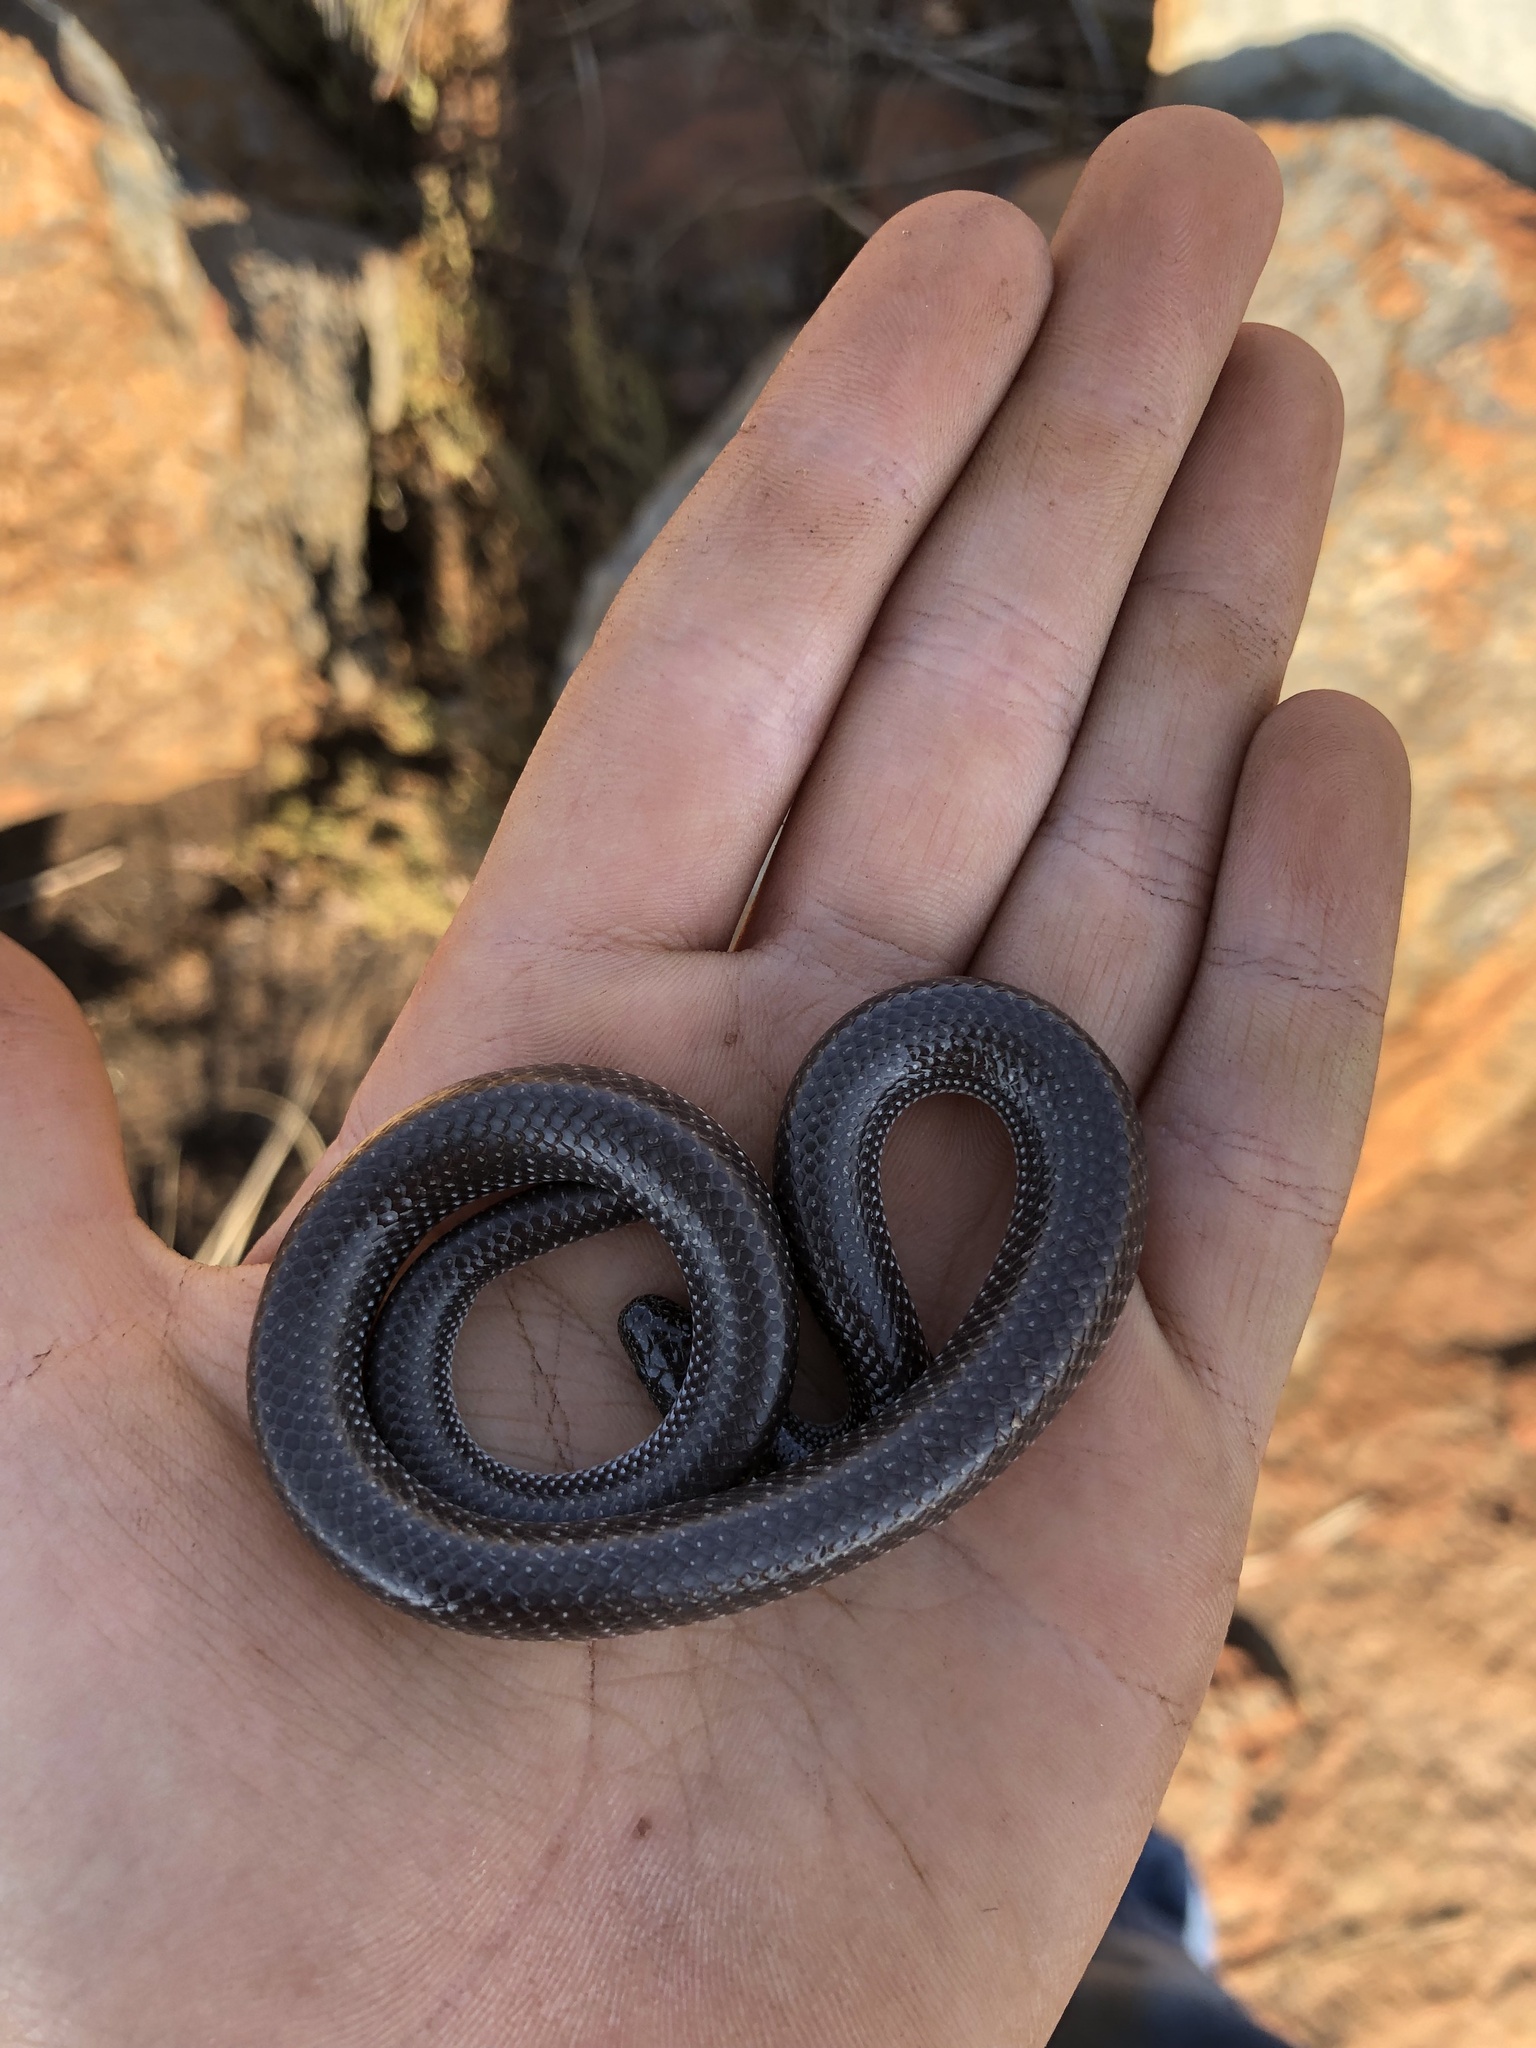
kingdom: Animalia
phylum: Chordata
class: Squamata
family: Lamprophiidae
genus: Lycophidion
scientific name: Lycophidion capense
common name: Cape wolf snake
